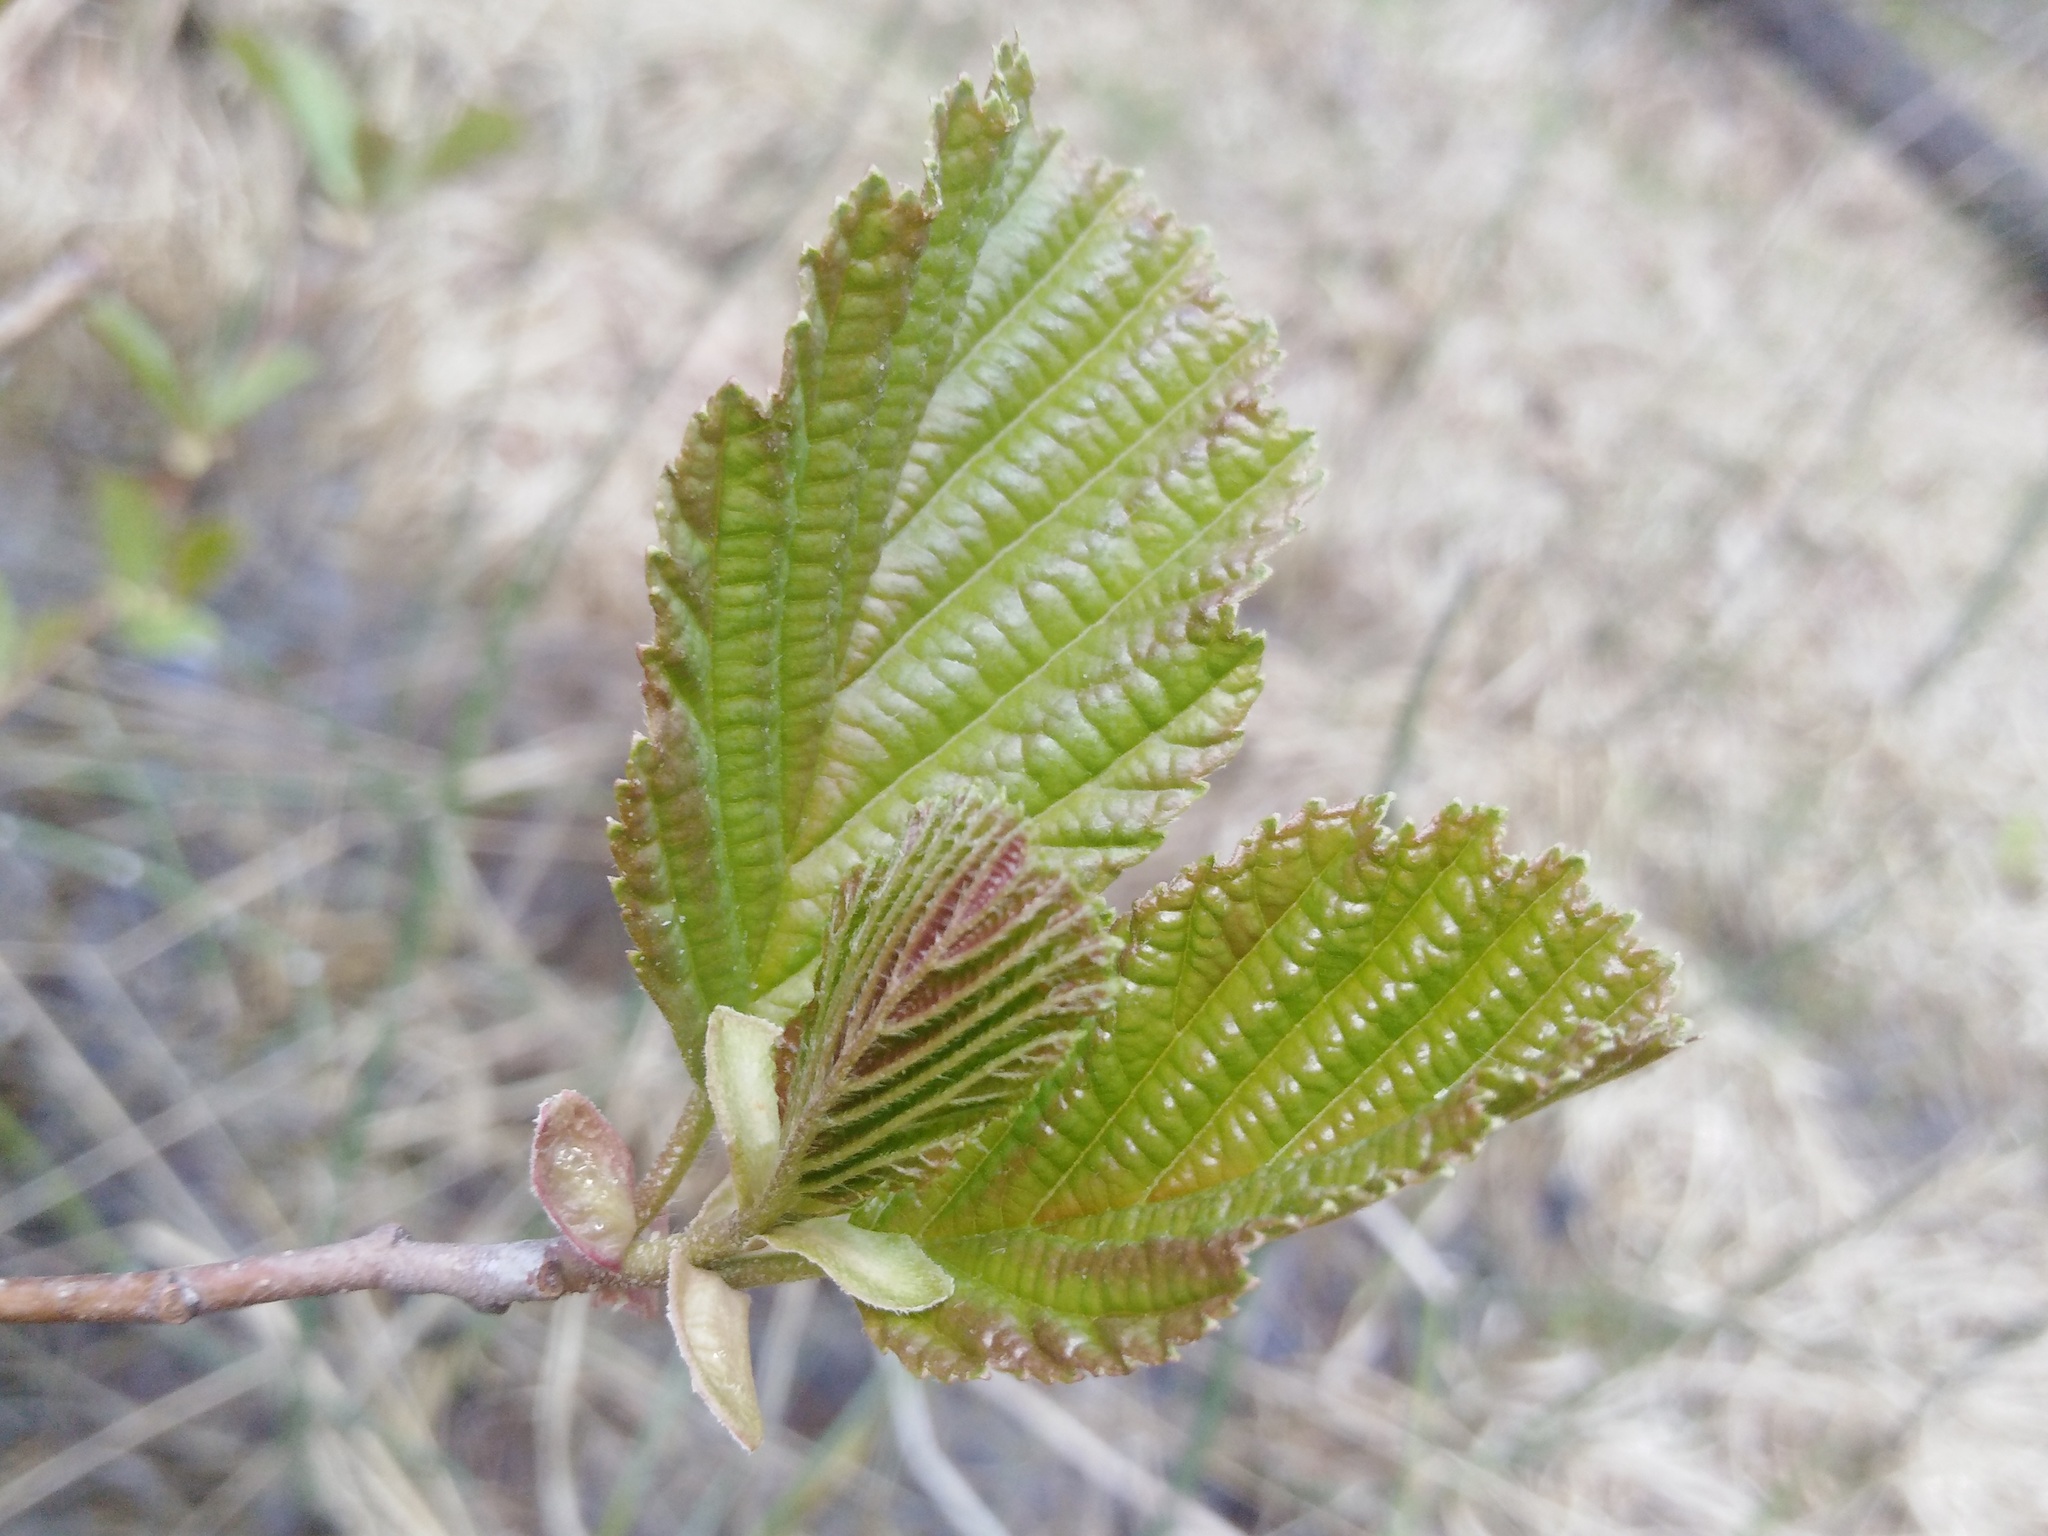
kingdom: Plantae
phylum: Tracheophyta
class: Magnoliopsida
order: Fagales
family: Betulaceae
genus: Alnus
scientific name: Alnus glutinosa
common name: Black alder
